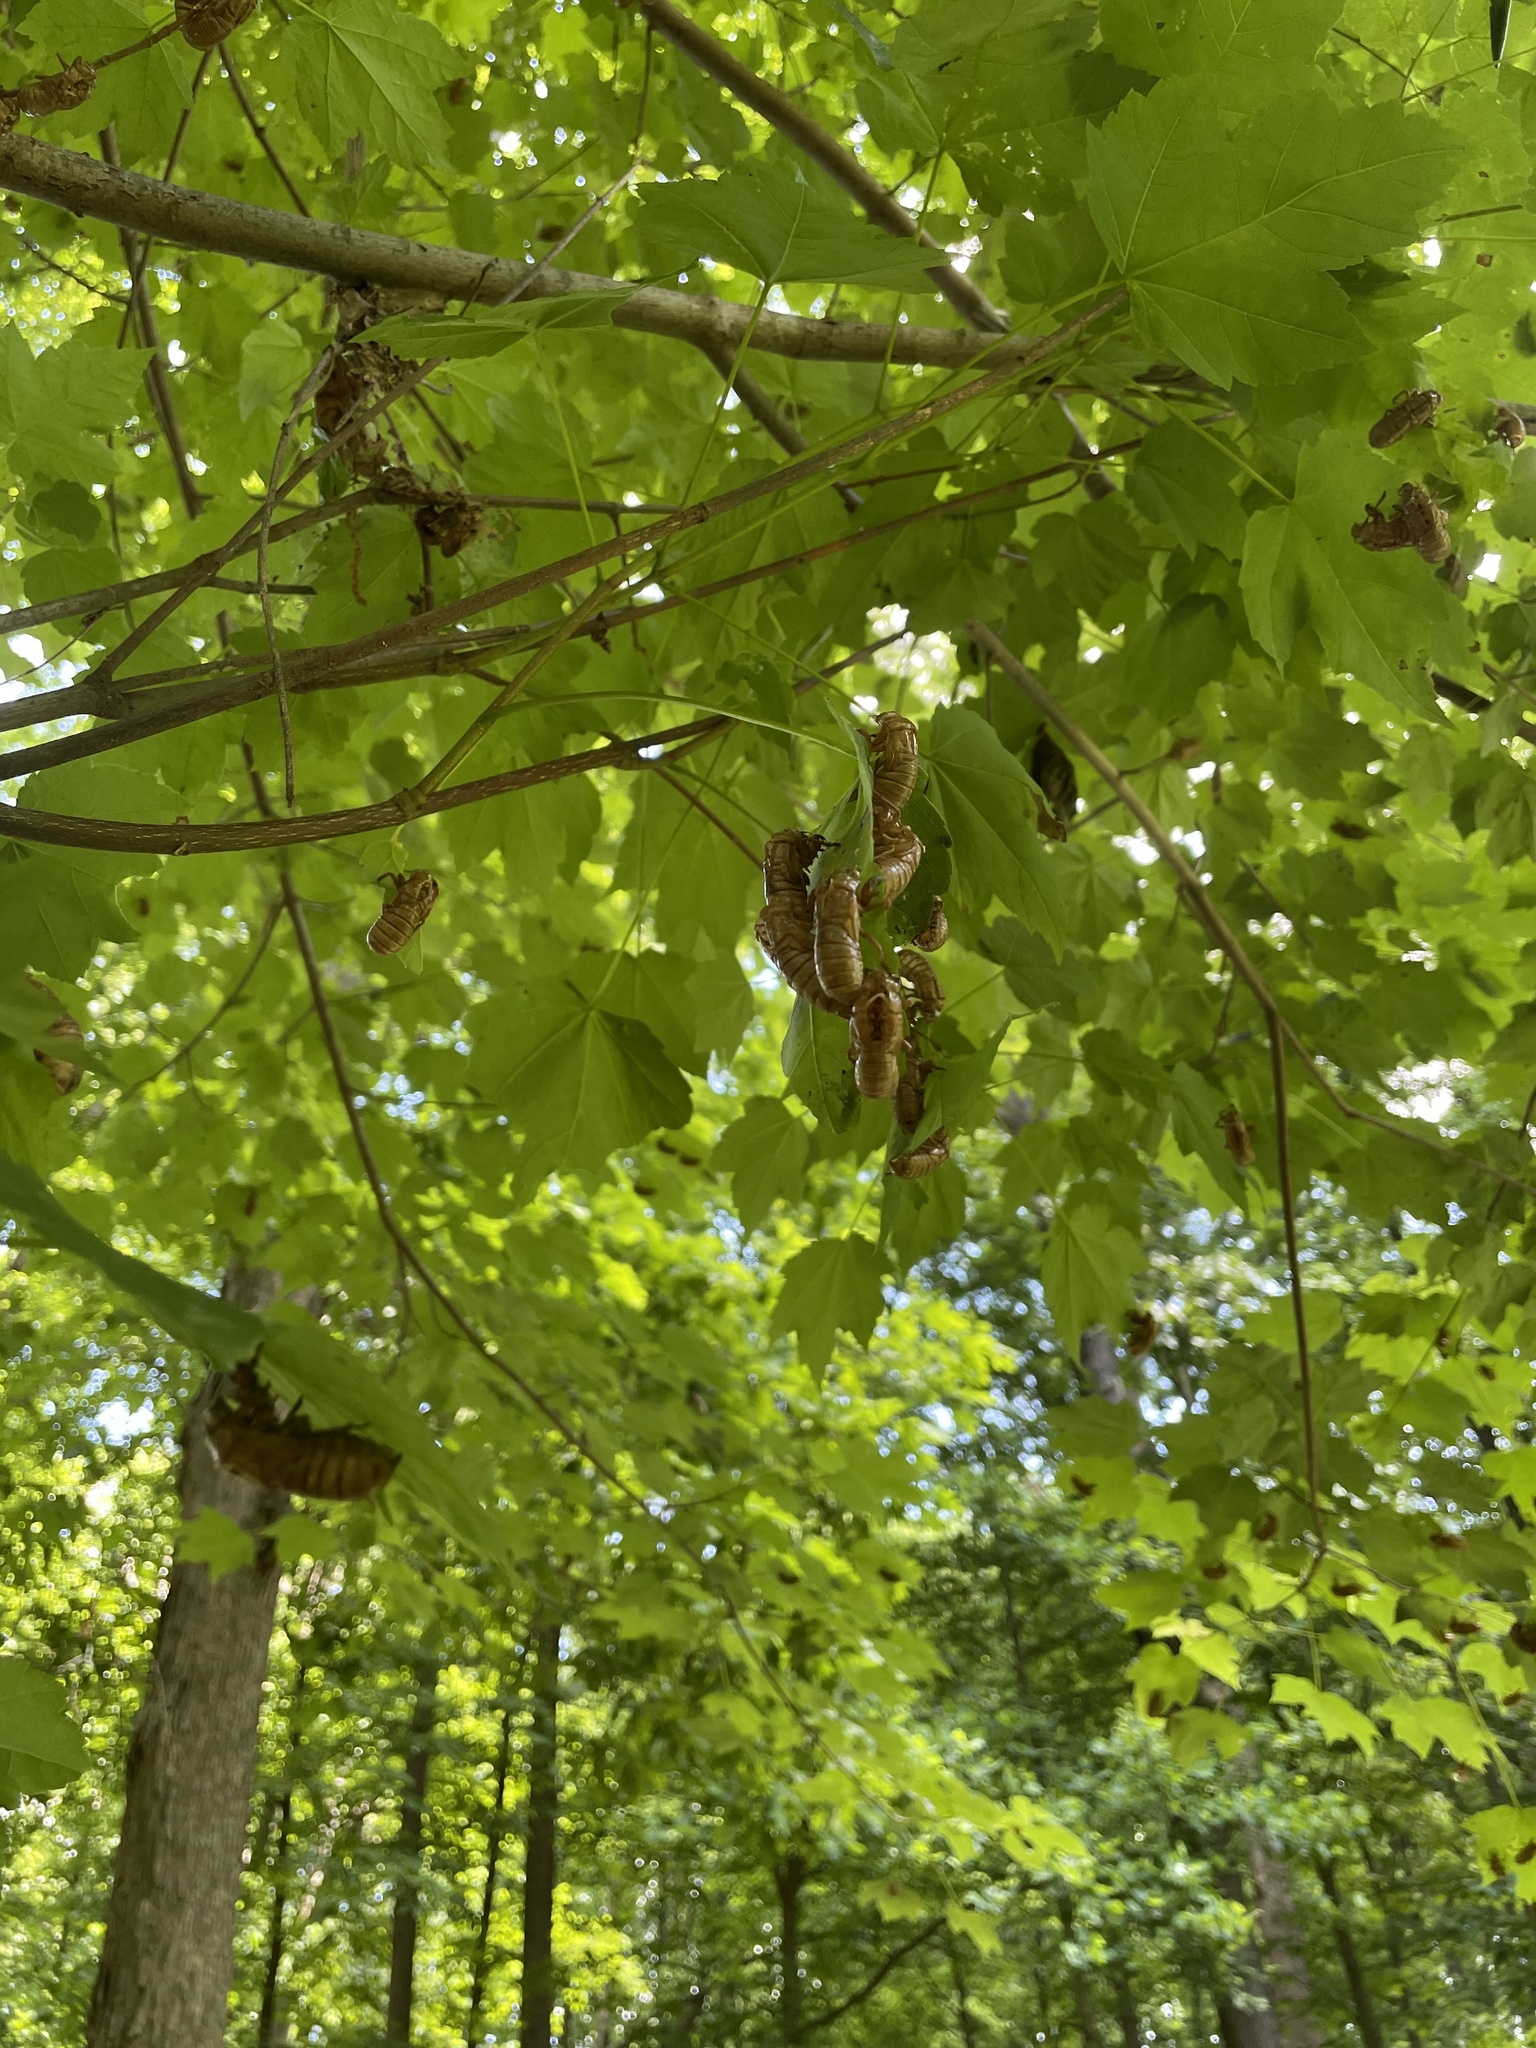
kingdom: Animalia
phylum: Arthropoda
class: Insecta
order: Hemiptera
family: Cicadidae
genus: Magicicada
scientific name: Magicicada
